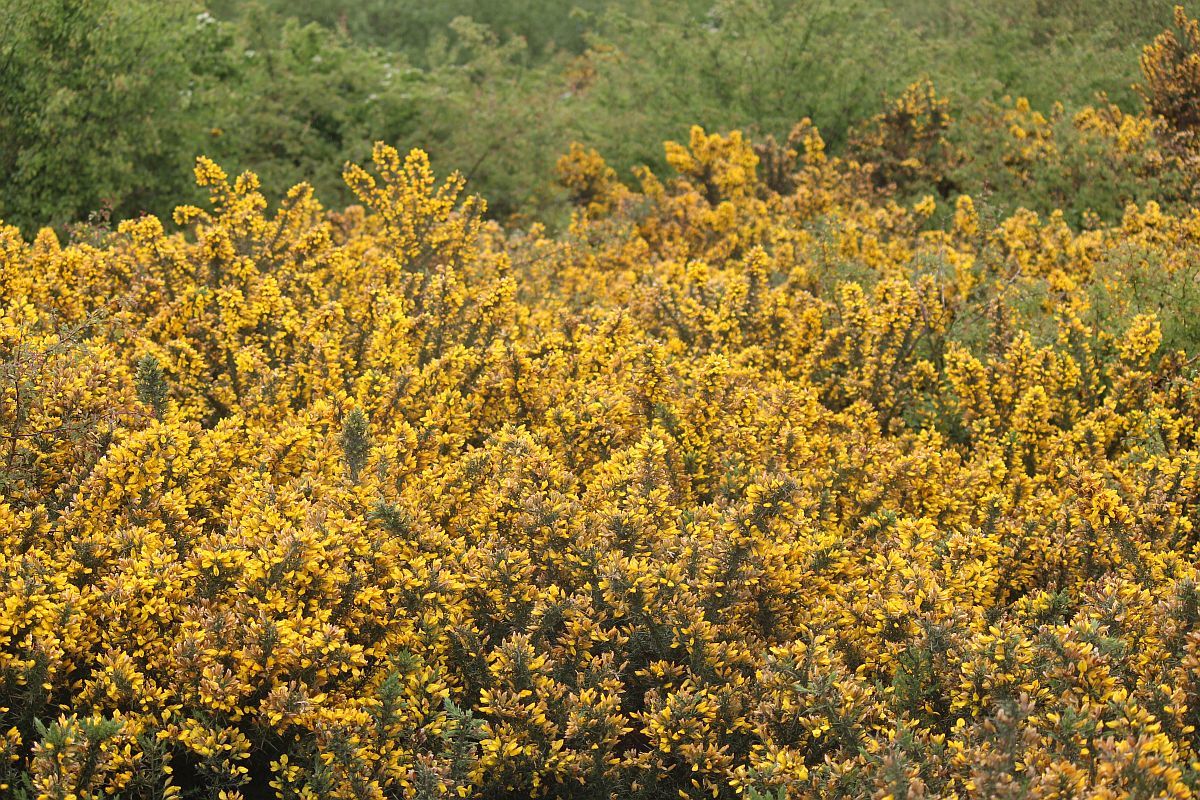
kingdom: Plantae
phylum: Tracheophyta
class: Magnoliopsida
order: Fabales
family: Fabaceae
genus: Ulex
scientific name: Ulex europaeus
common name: Common gorse
